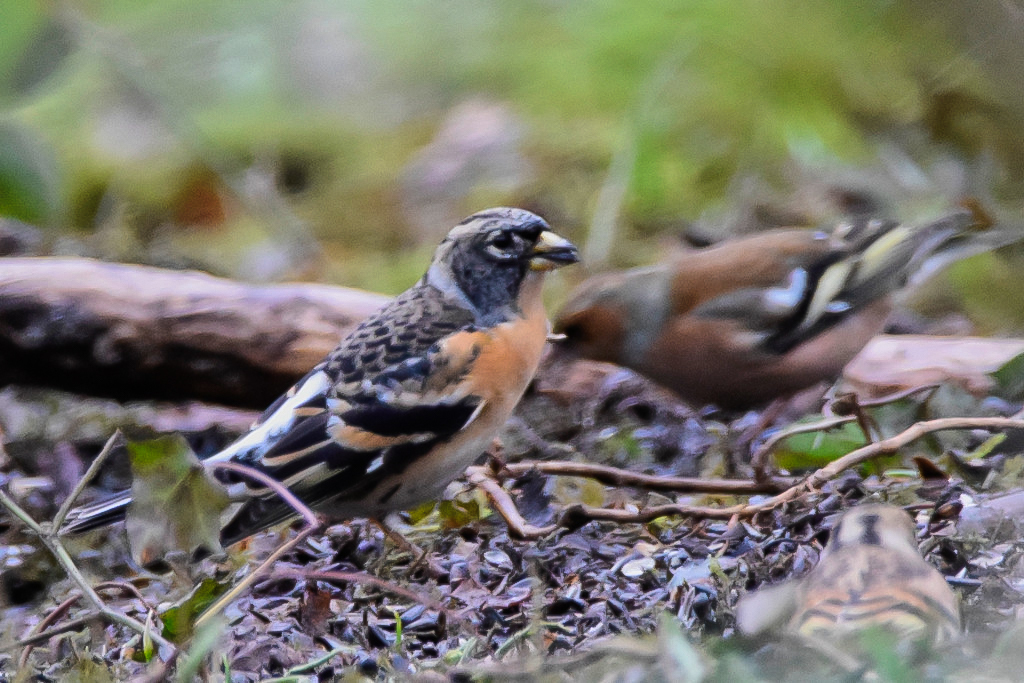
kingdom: Animalia
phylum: Chordata
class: Aves
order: Passeriformes
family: Fringillidae
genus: Fringilla
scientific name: Fringilla montifringilla
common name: Brambling
